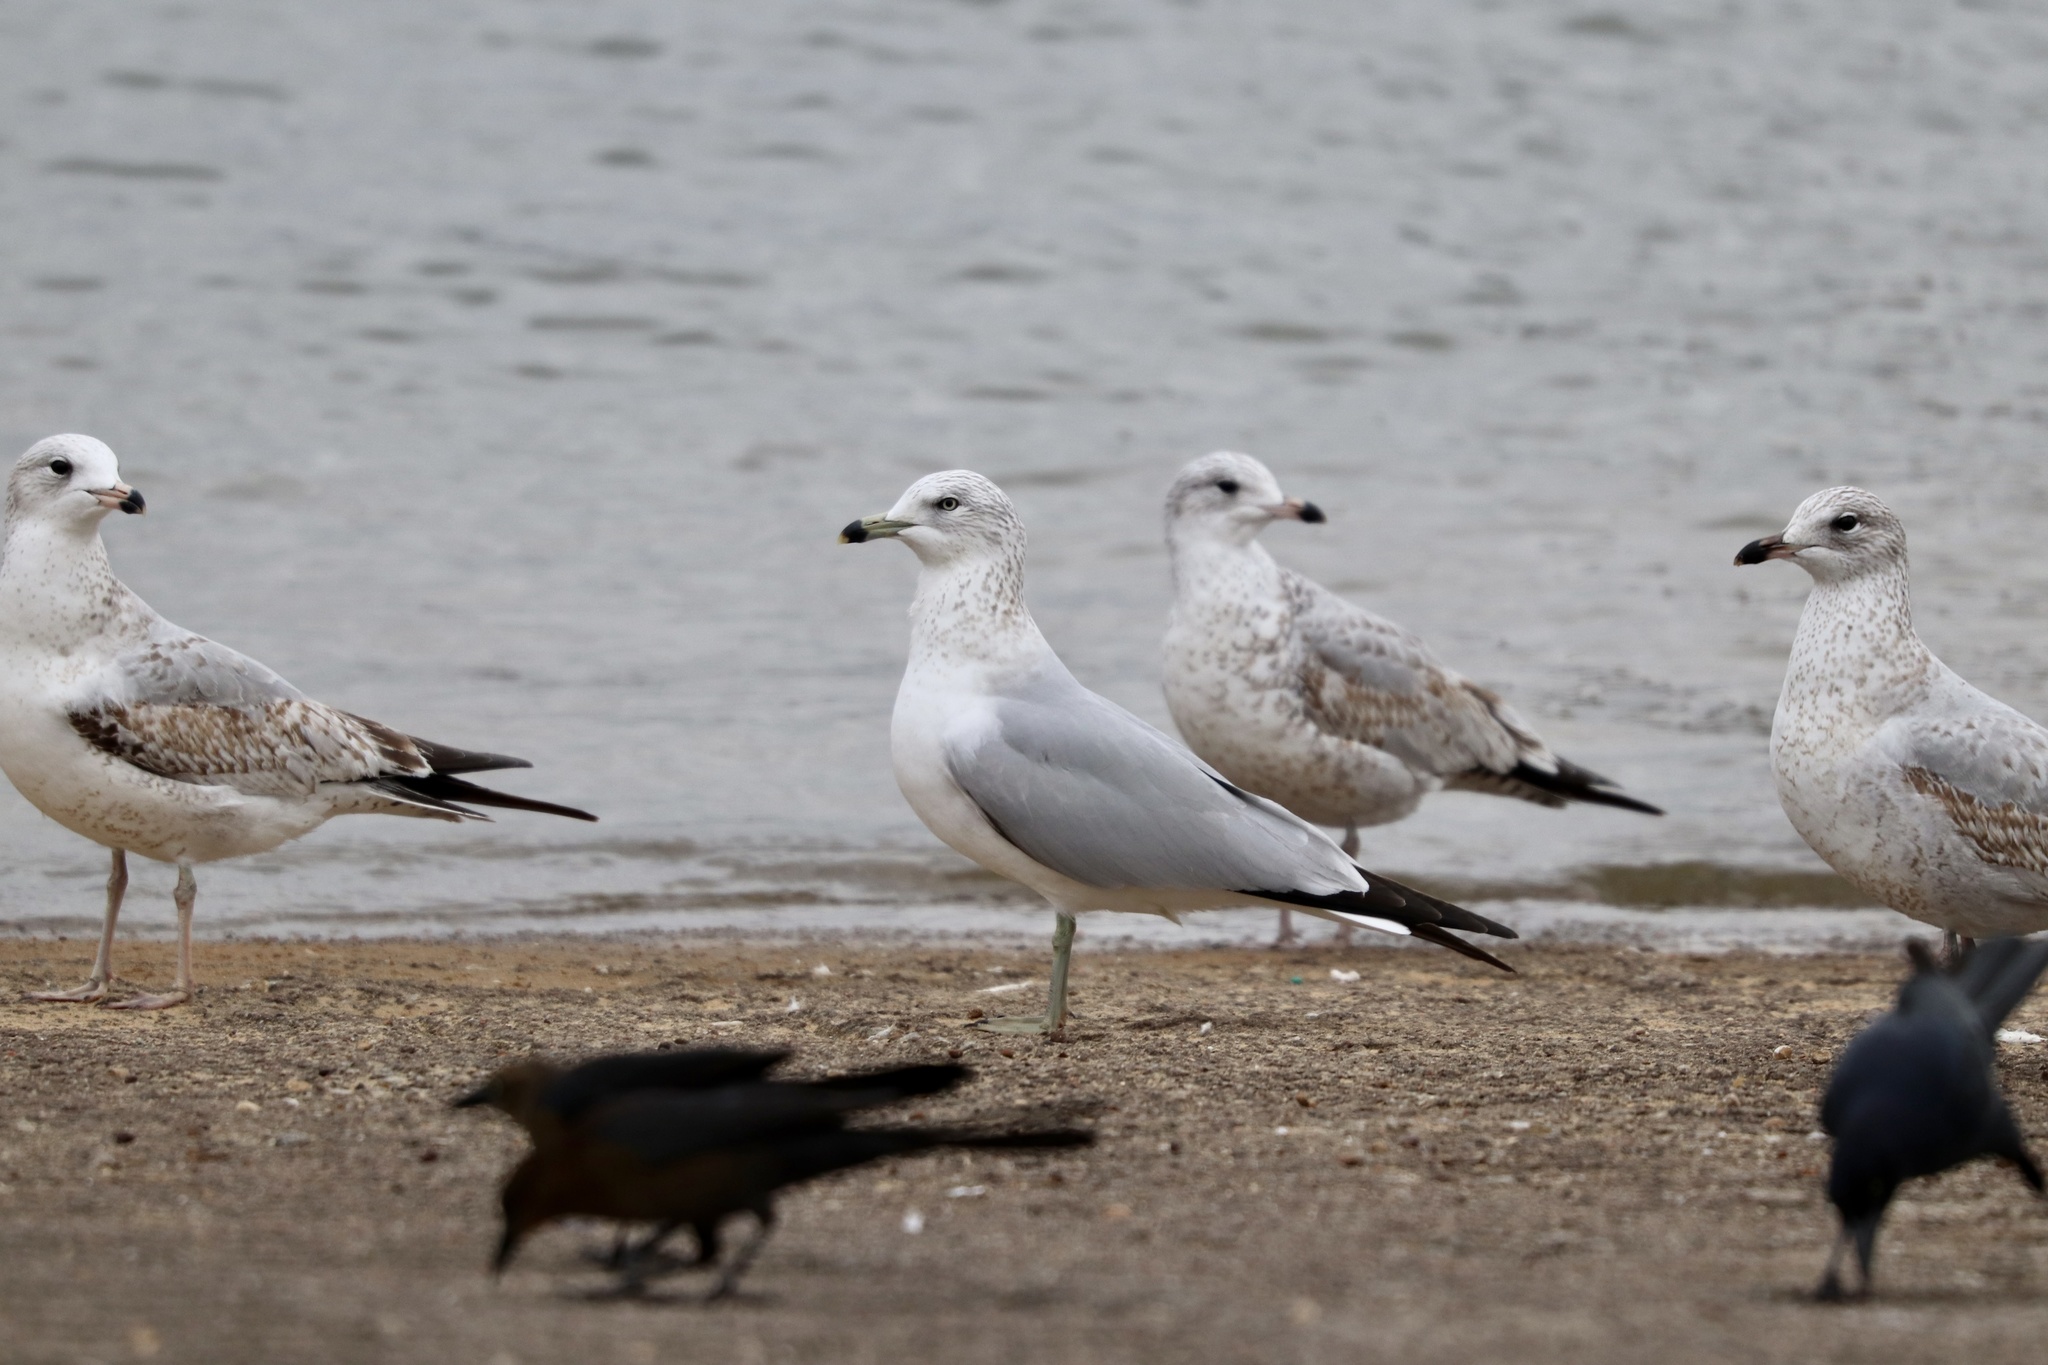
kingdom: Animalia
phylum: Chordata
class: Aves
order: Charadriiformes
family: Laridae
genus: Larus
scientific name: Larus delawarensis
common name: Ring-billed gull
